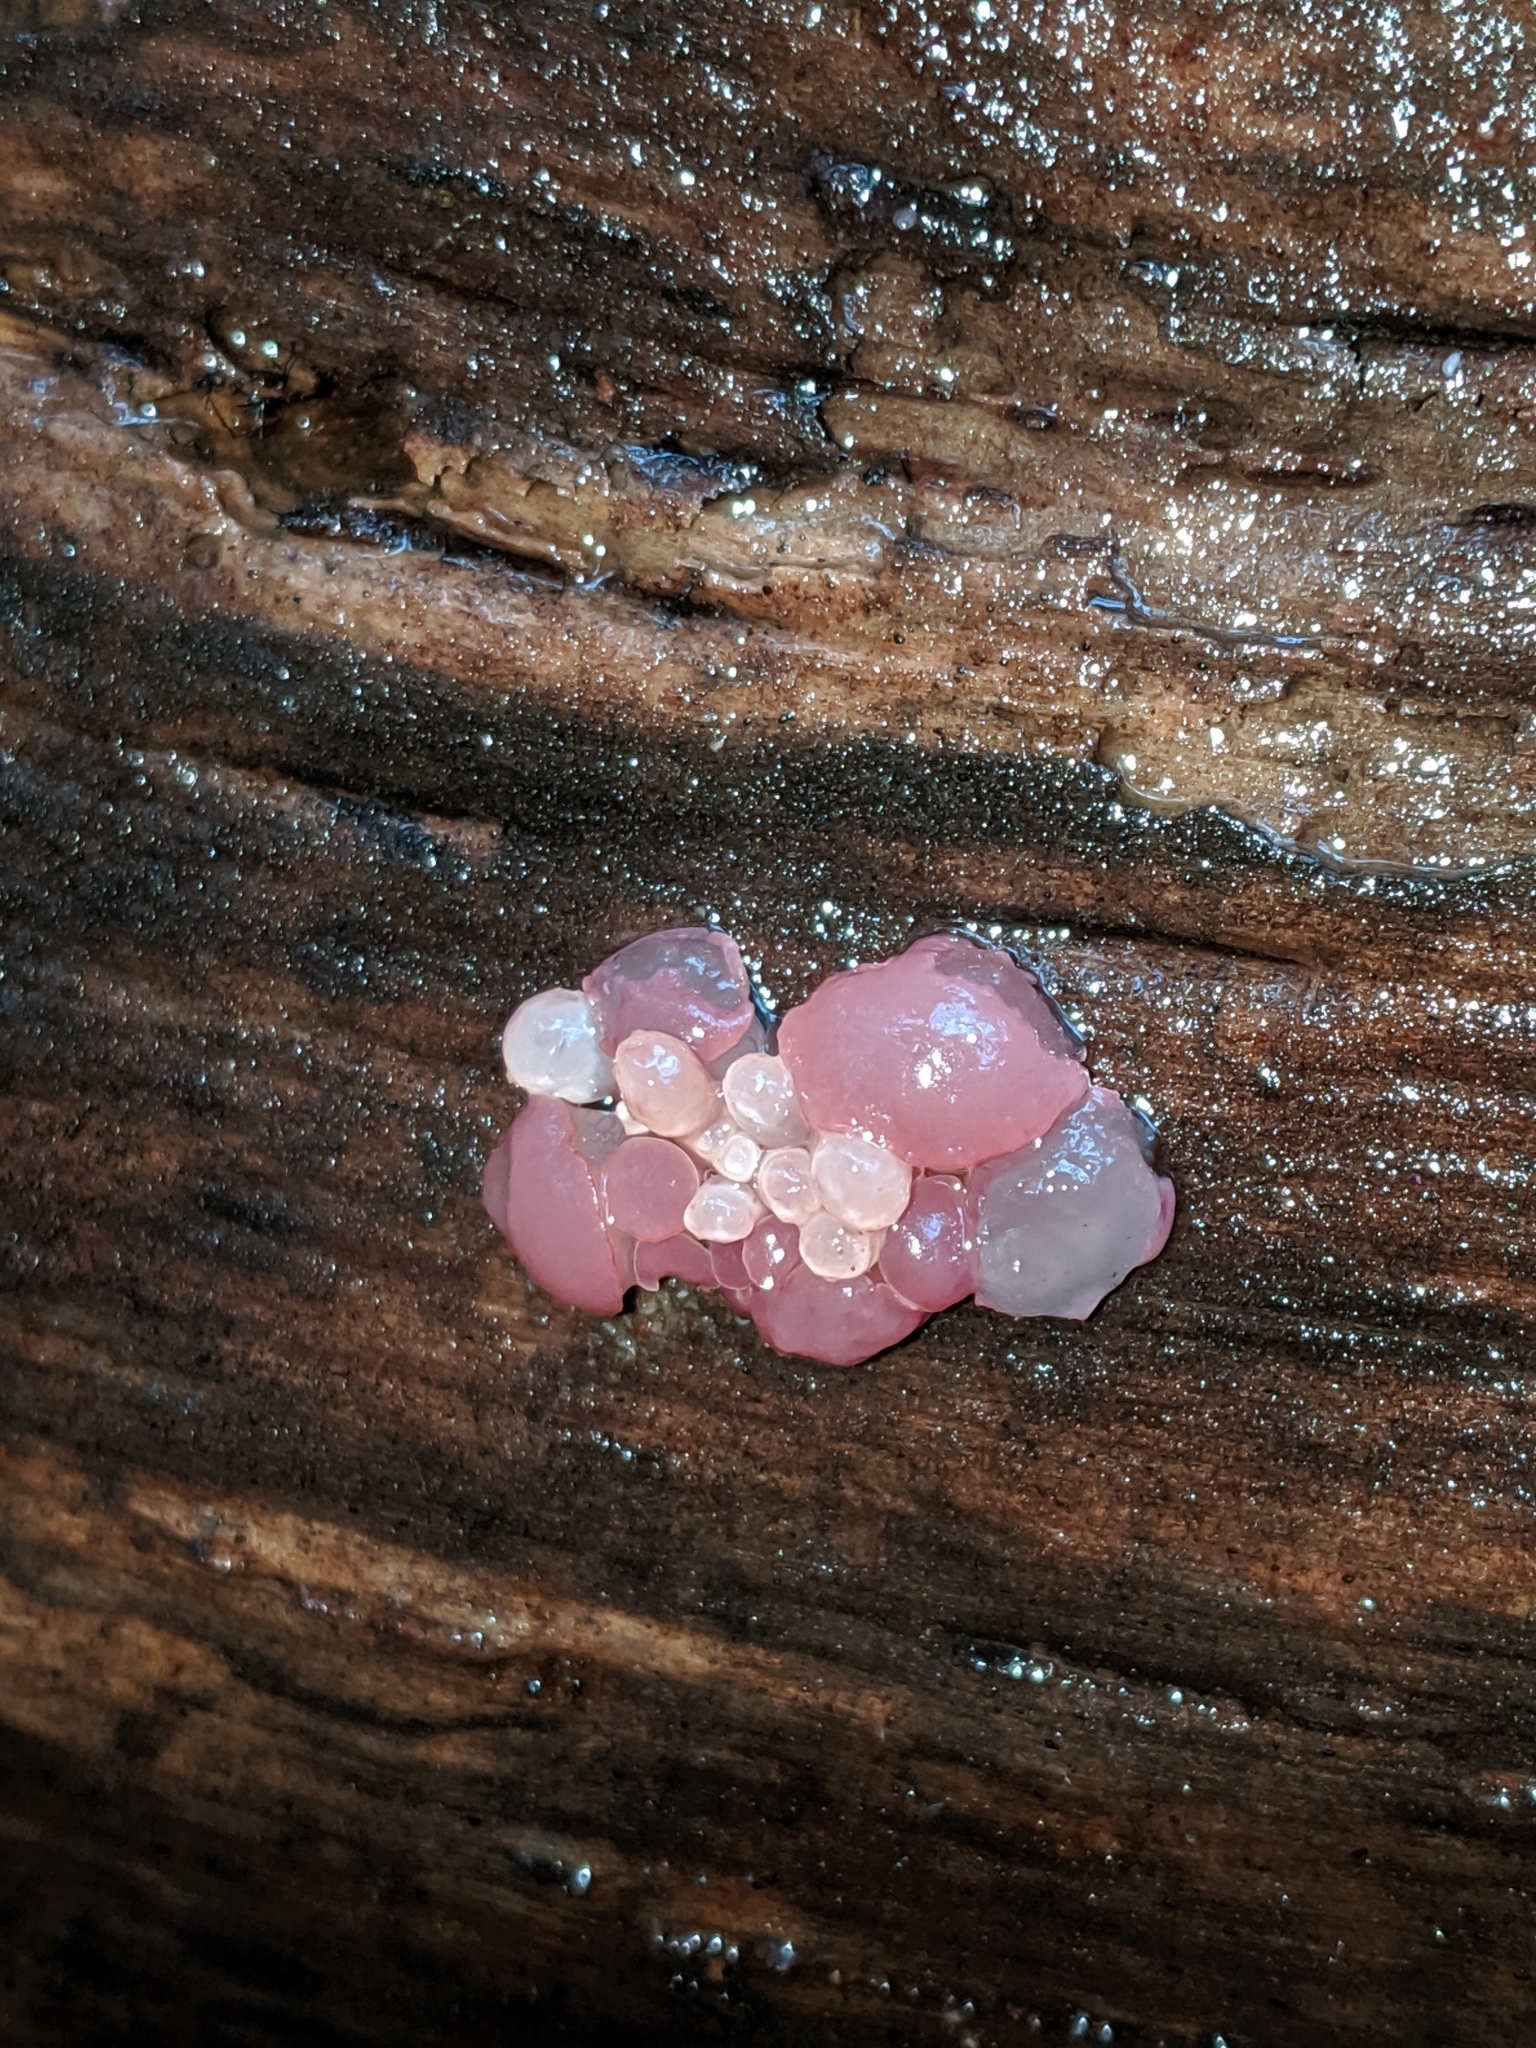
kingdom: Fungi
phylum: Ascomycota
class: Leotiomycetes
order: Helotiales
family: Gelatinodiscaceae
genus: Ascocoryne
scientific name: Ascocoryne sarcoides
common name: Purple jellydisc
